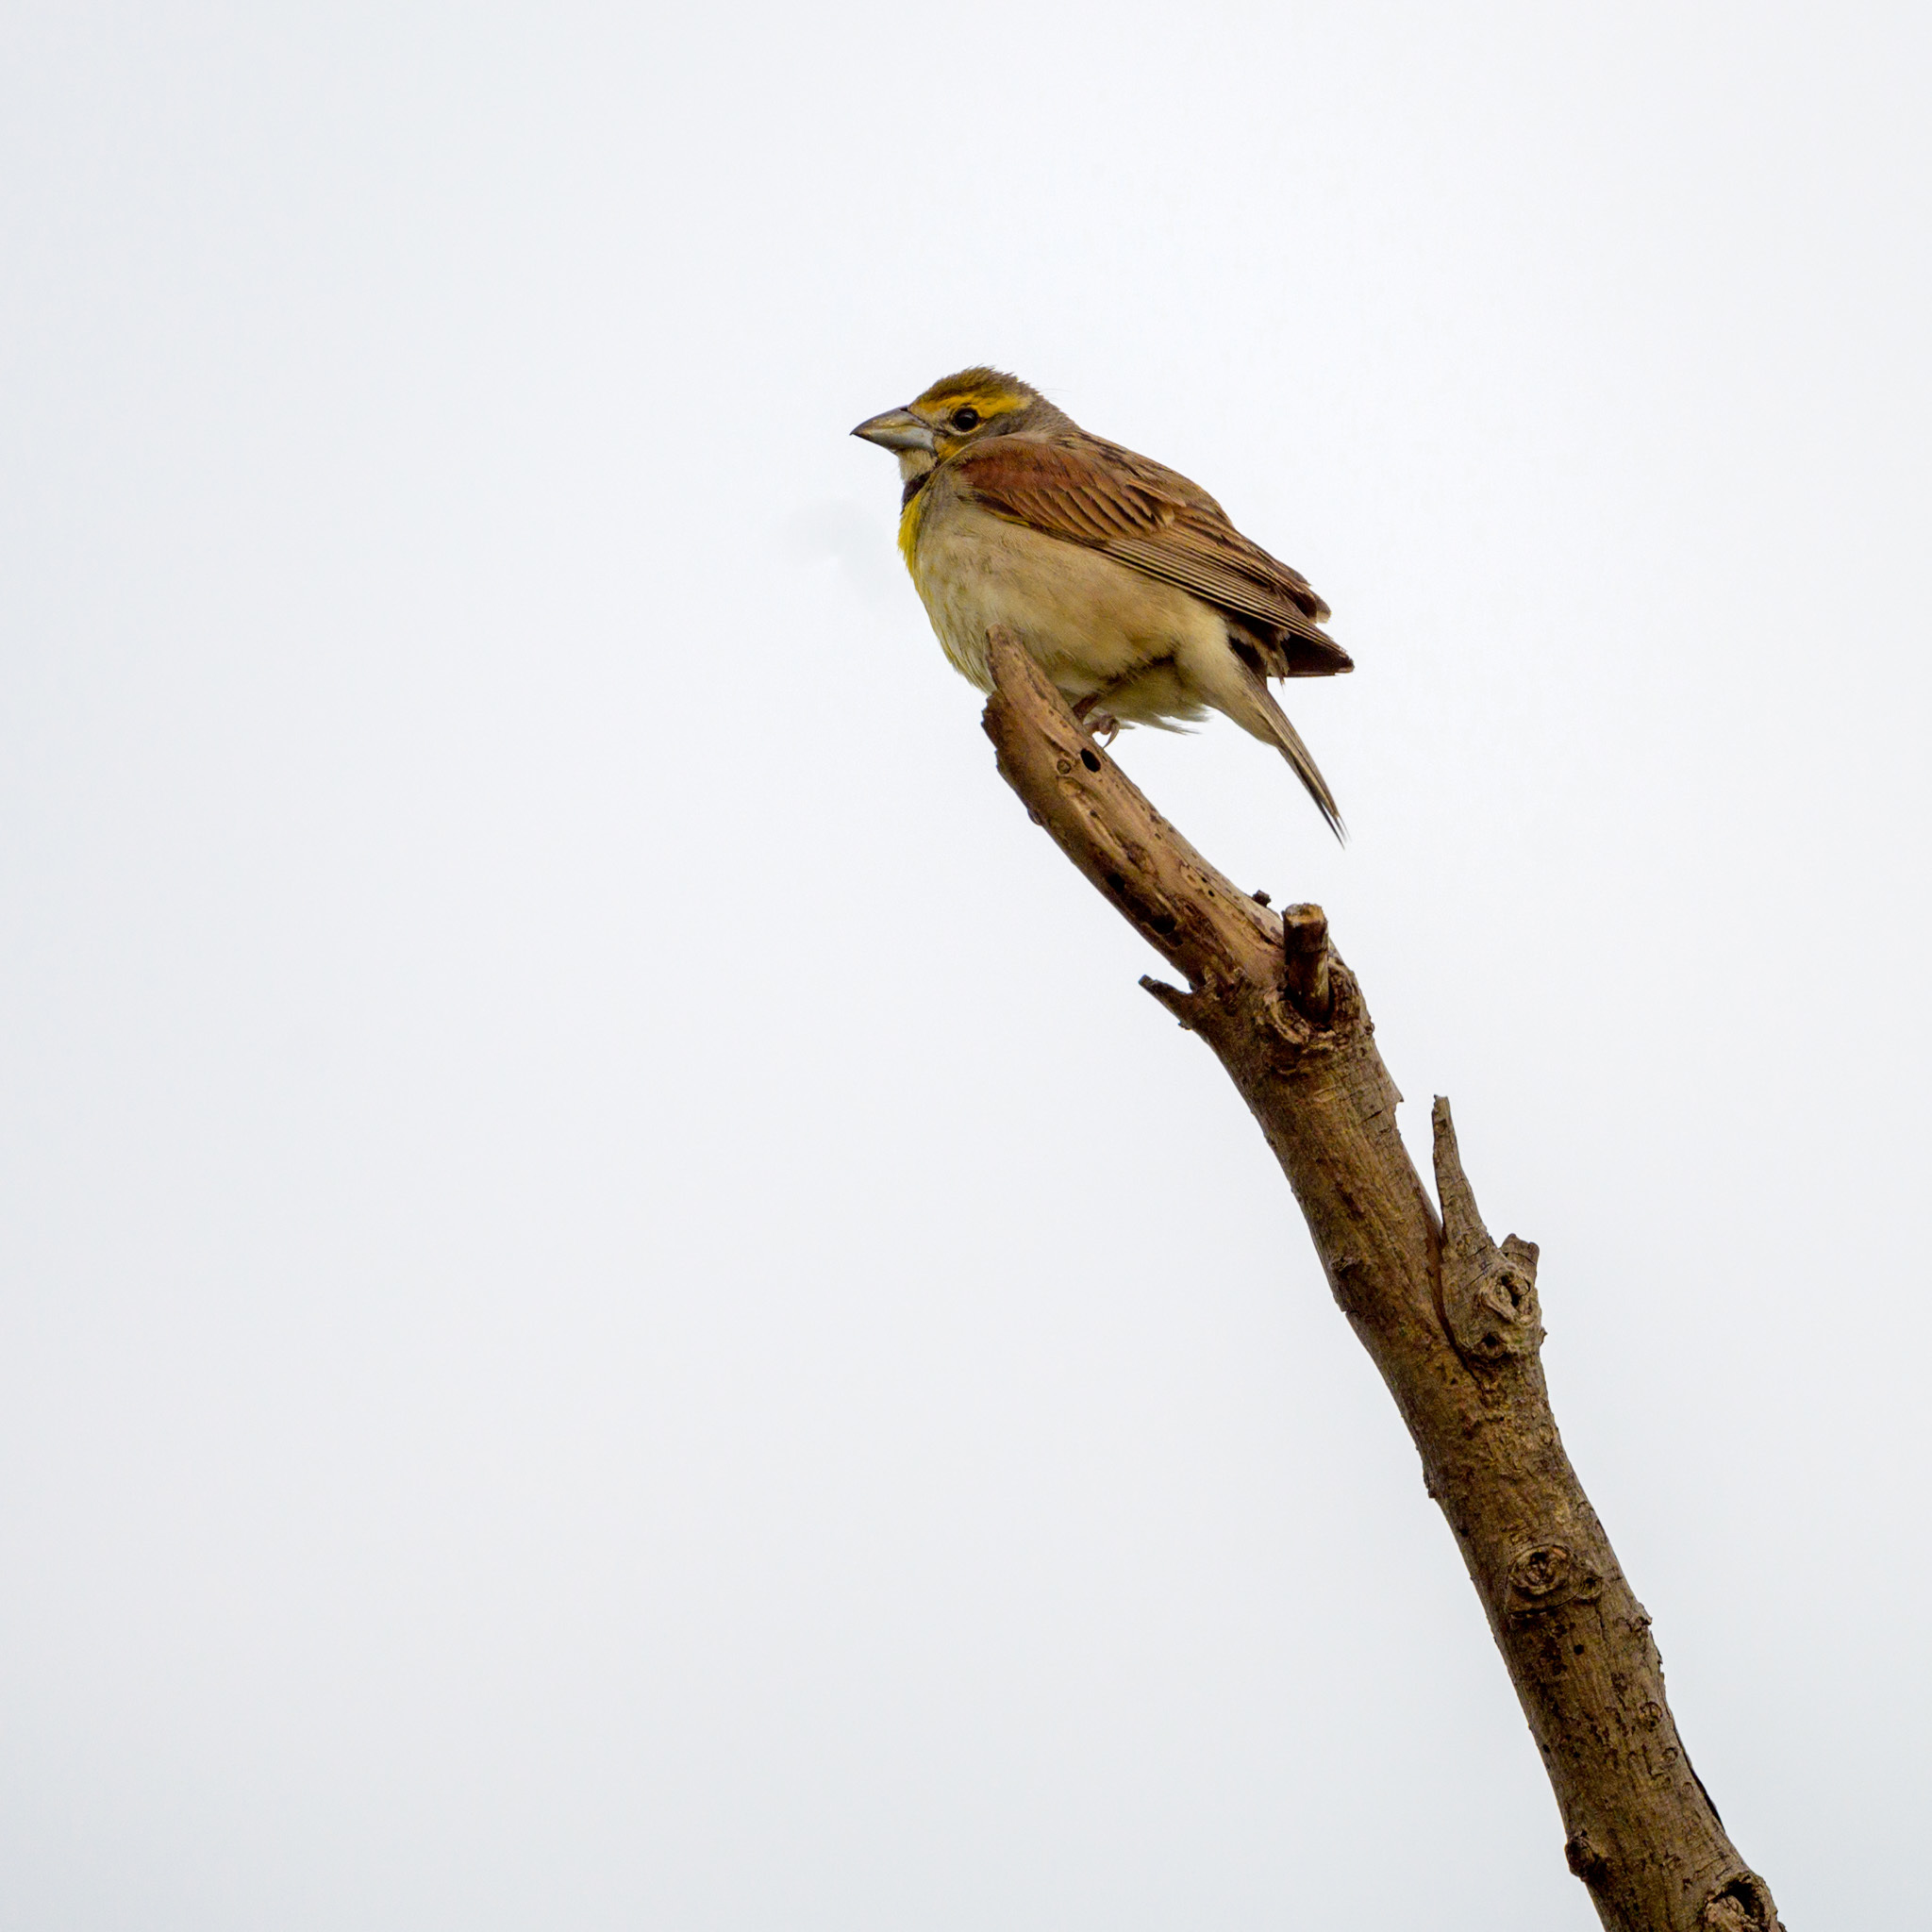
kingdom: Animalia
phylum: Chordata
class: Aves
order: Passeriformes
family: Cardinalidae
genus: Spiza
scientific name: Spiza americana
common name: Dickcissel
